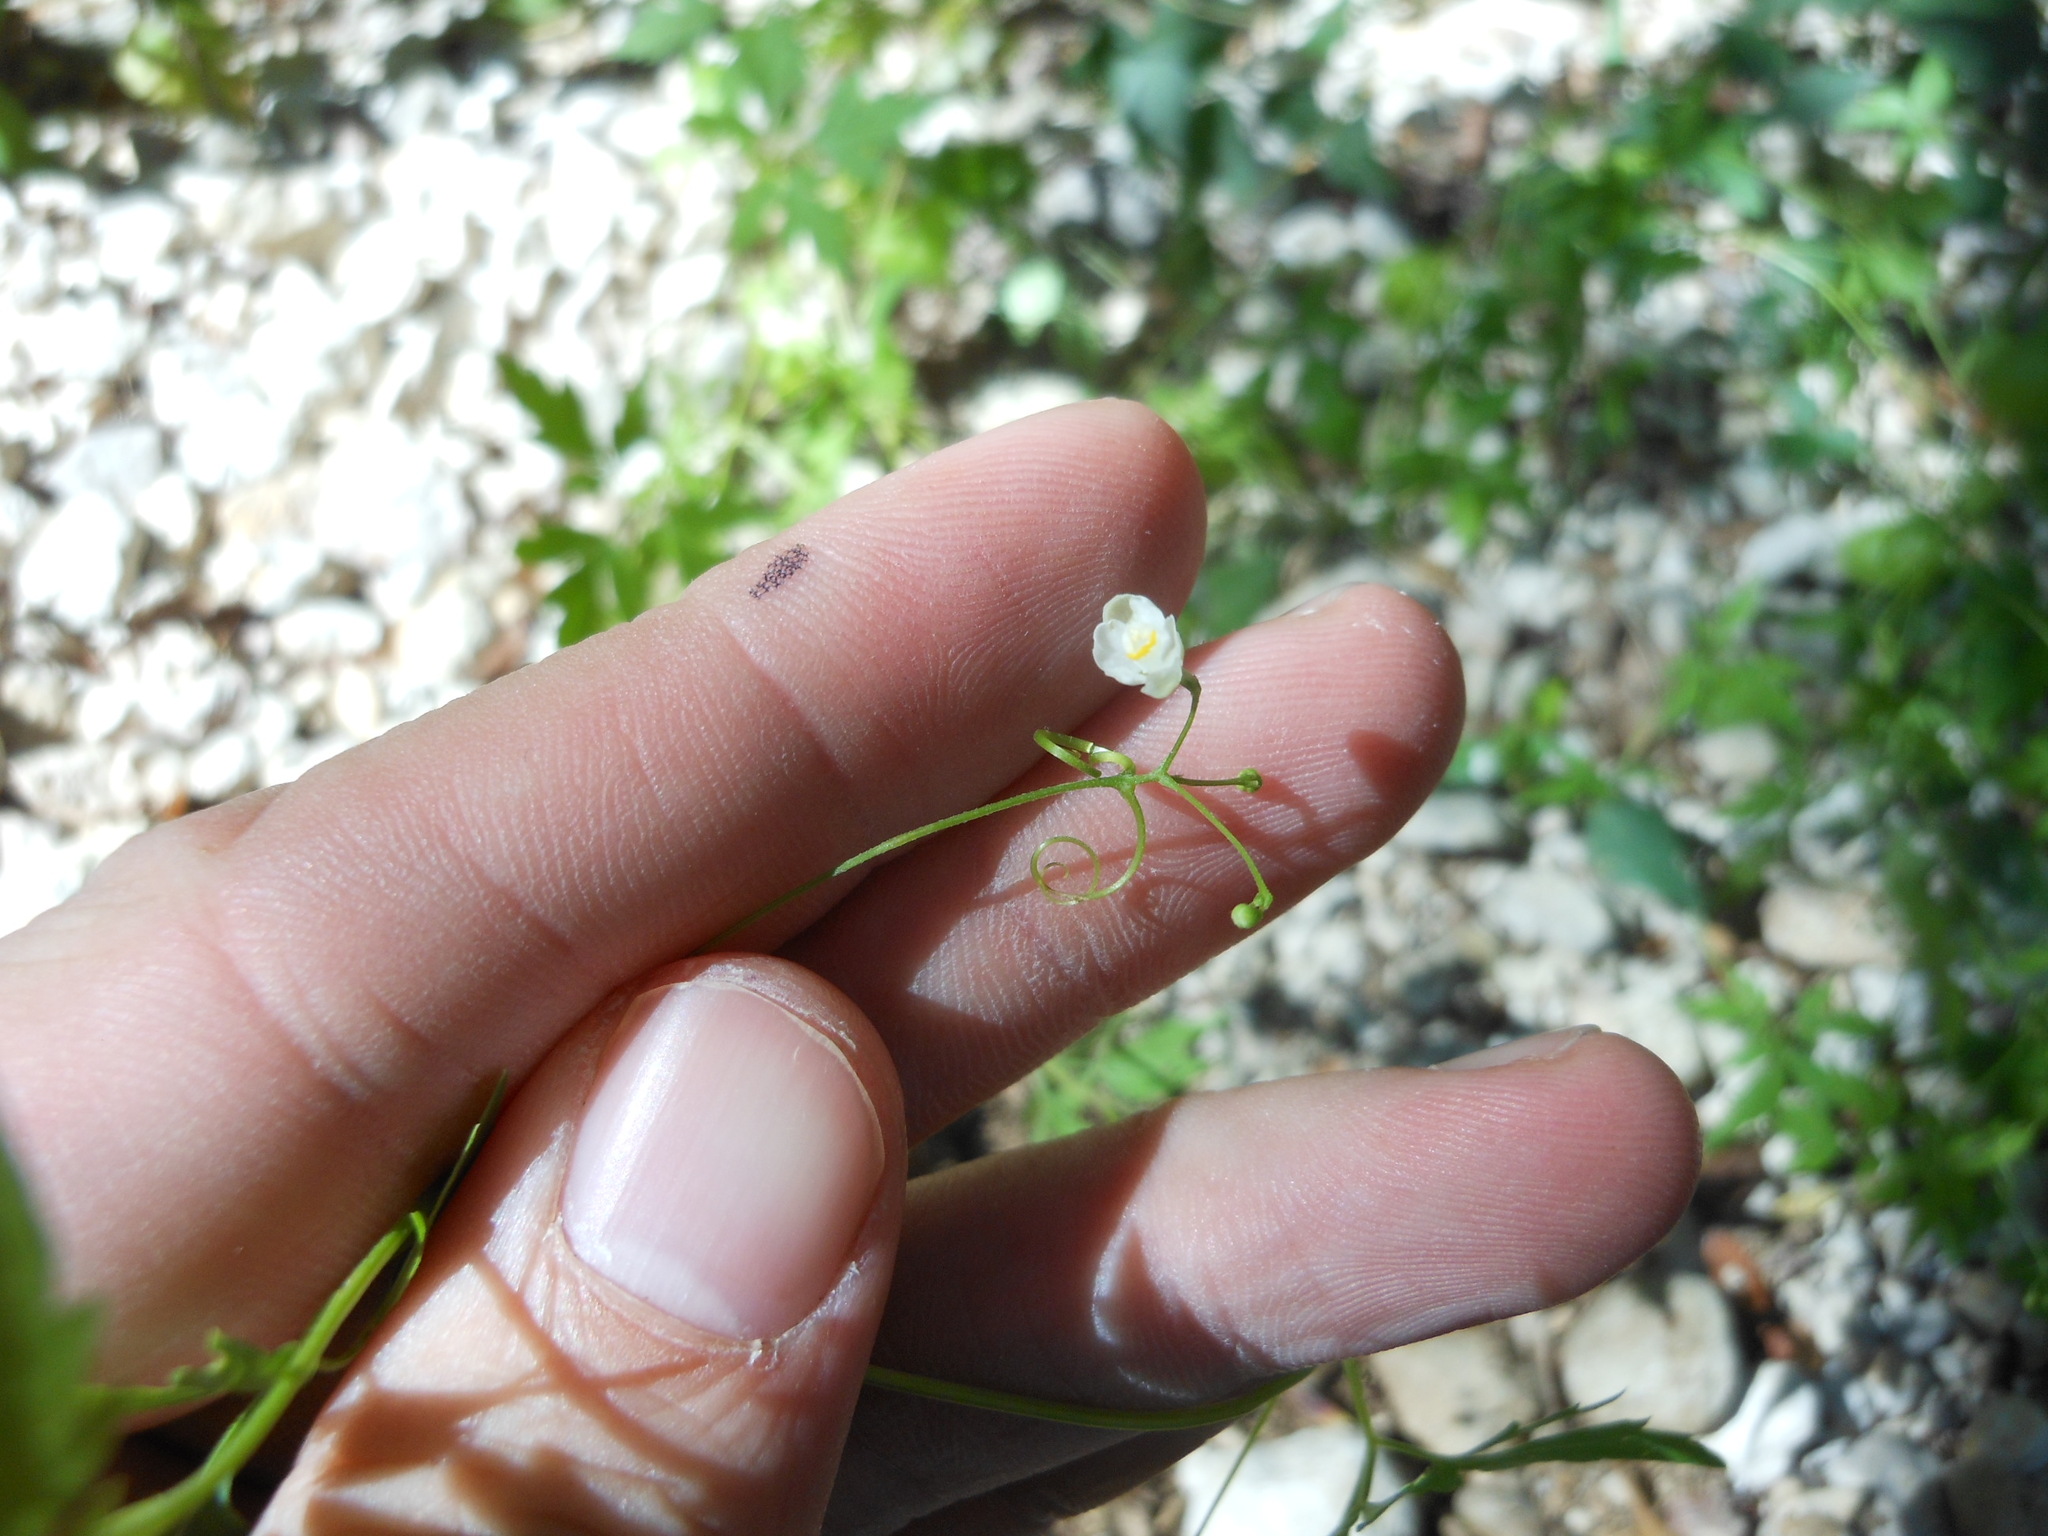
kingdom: Plantae
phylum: Tracheophyta
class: Magnoliopsida
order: Sapindales
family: Sapindaceae
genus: Cardiospermum
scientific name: Cardiospermum halicacabum
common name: Balloon vine
